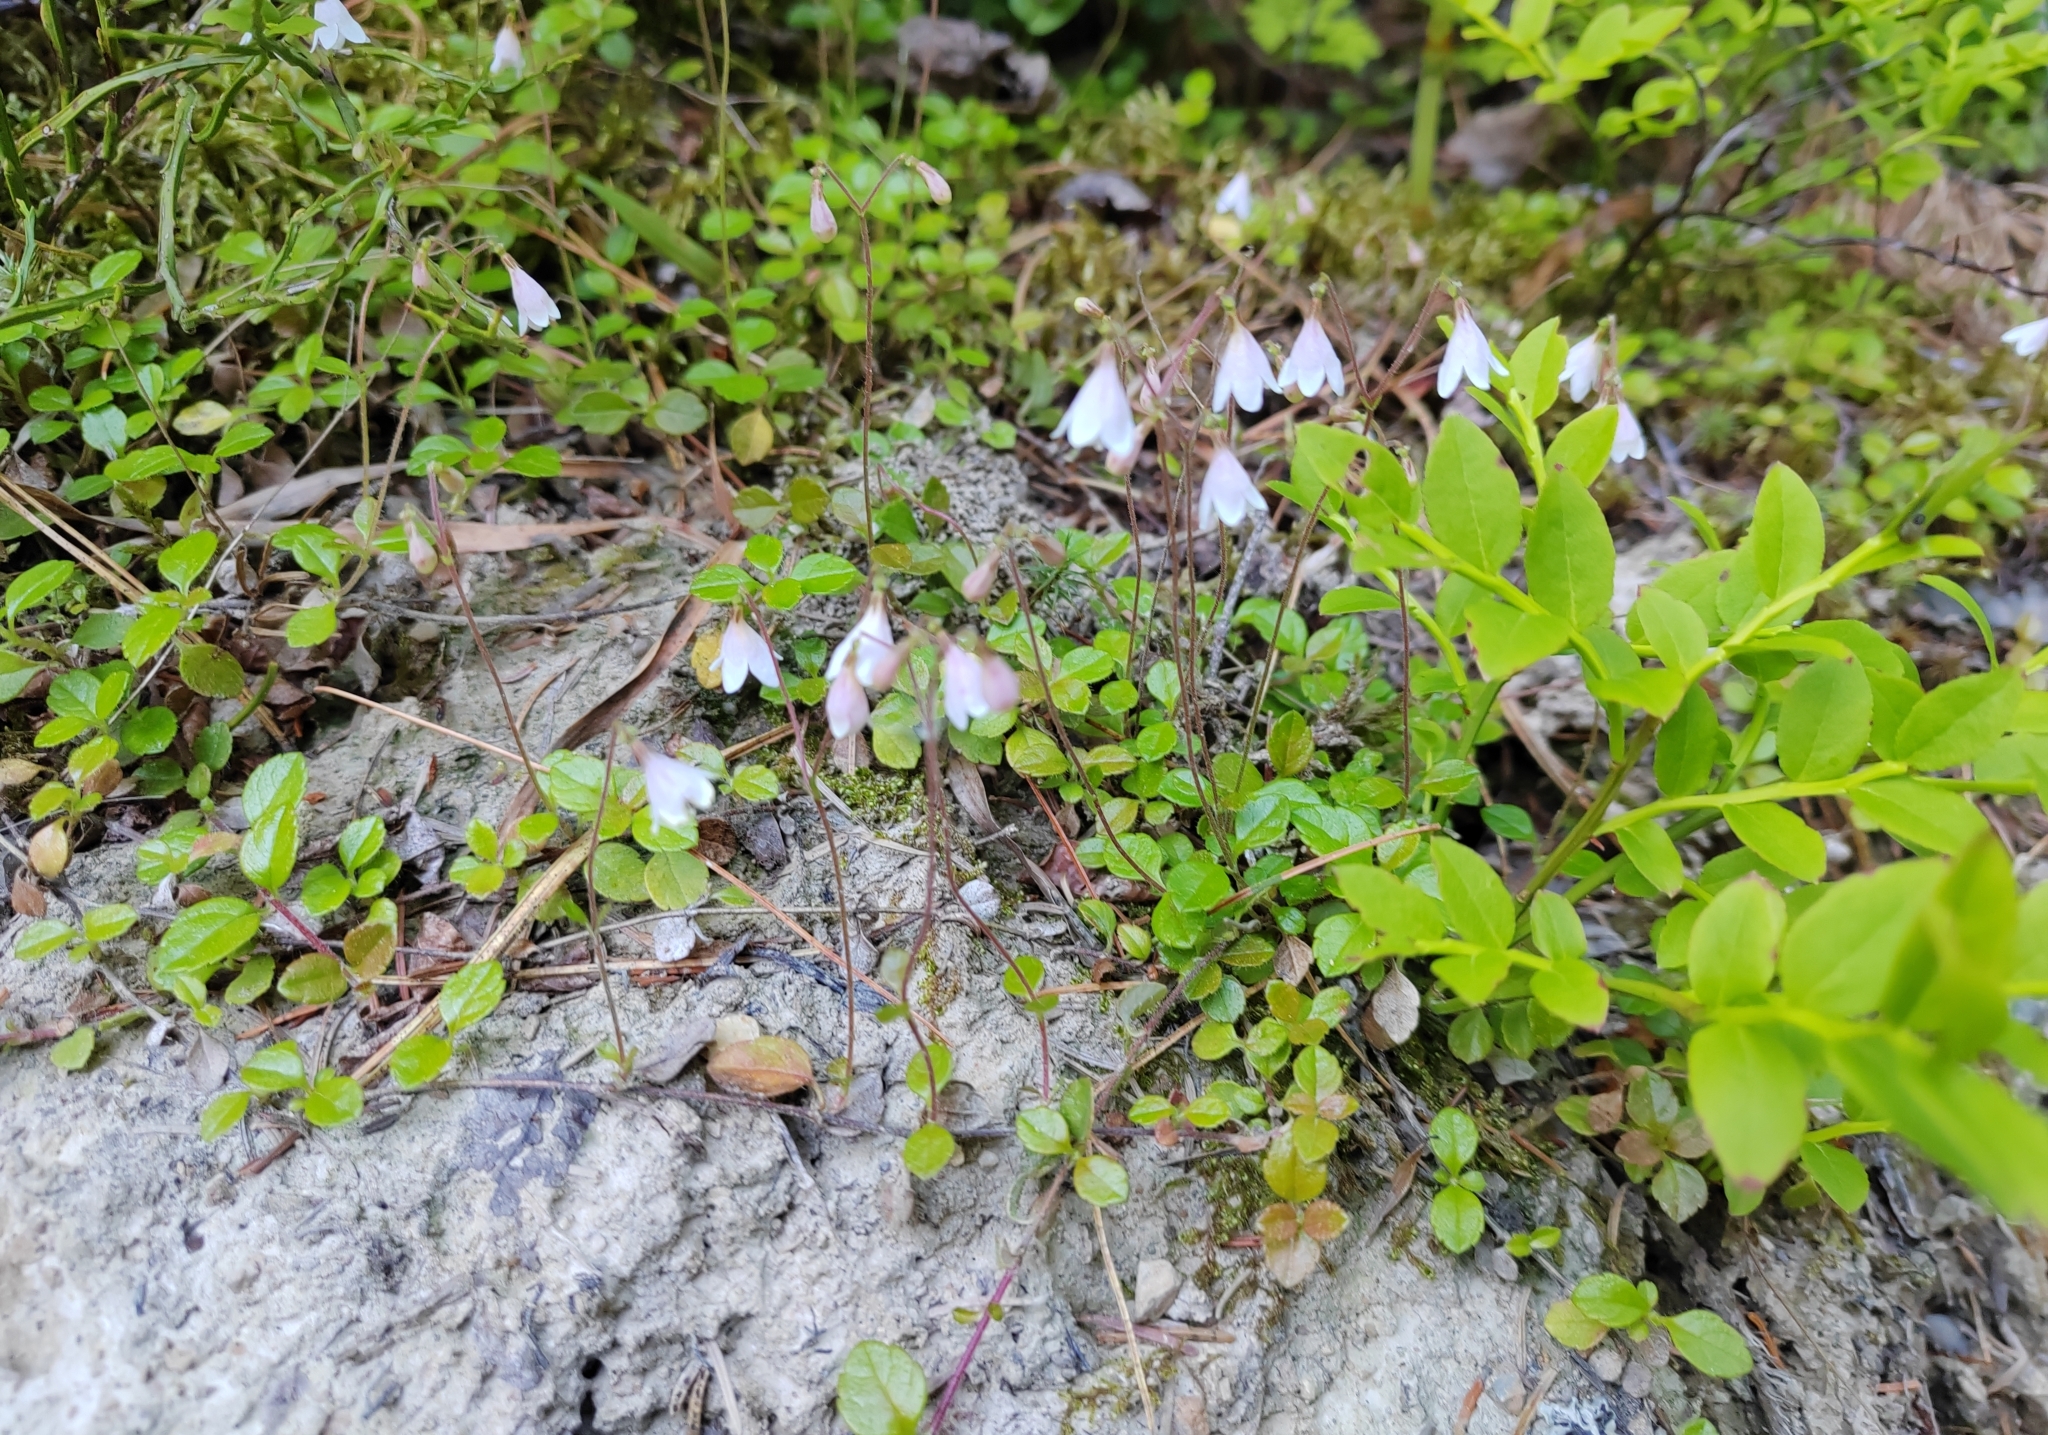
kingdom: Plantae
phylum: Tracheophyta
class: Magnoliopsida
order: Dipsacales
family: Caprifoliaceae
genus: Linnaea
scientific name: Linnaea borealis
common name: Twinflower
